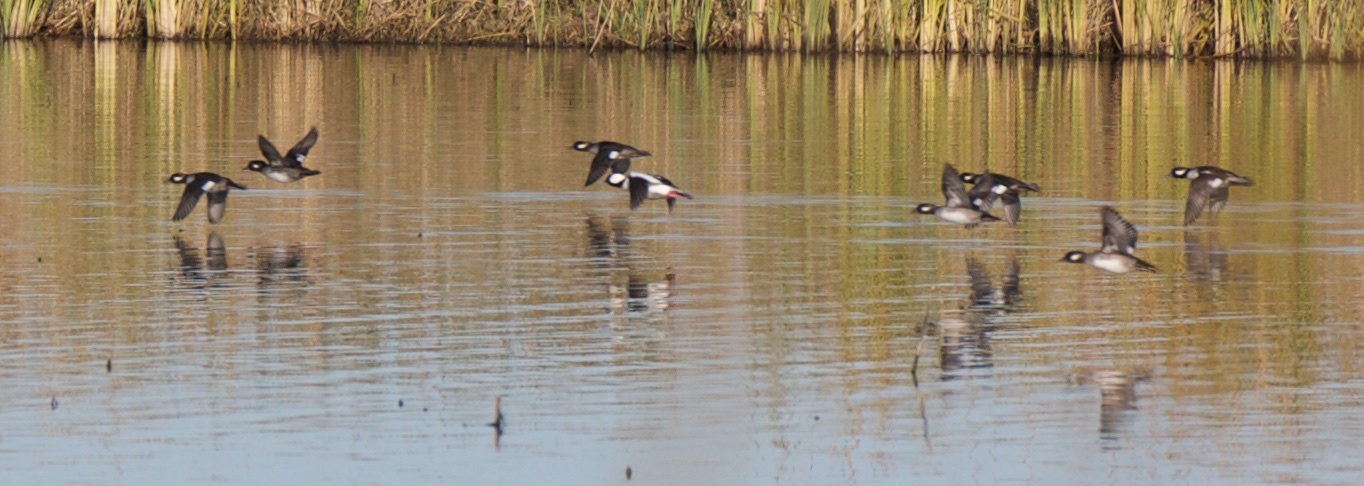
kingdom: Animalia
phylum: Chordata
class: Aves
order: Anseriformes
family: Anatidae
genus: Bucephala
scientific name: Bucephala albeola
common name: Bufflehead
